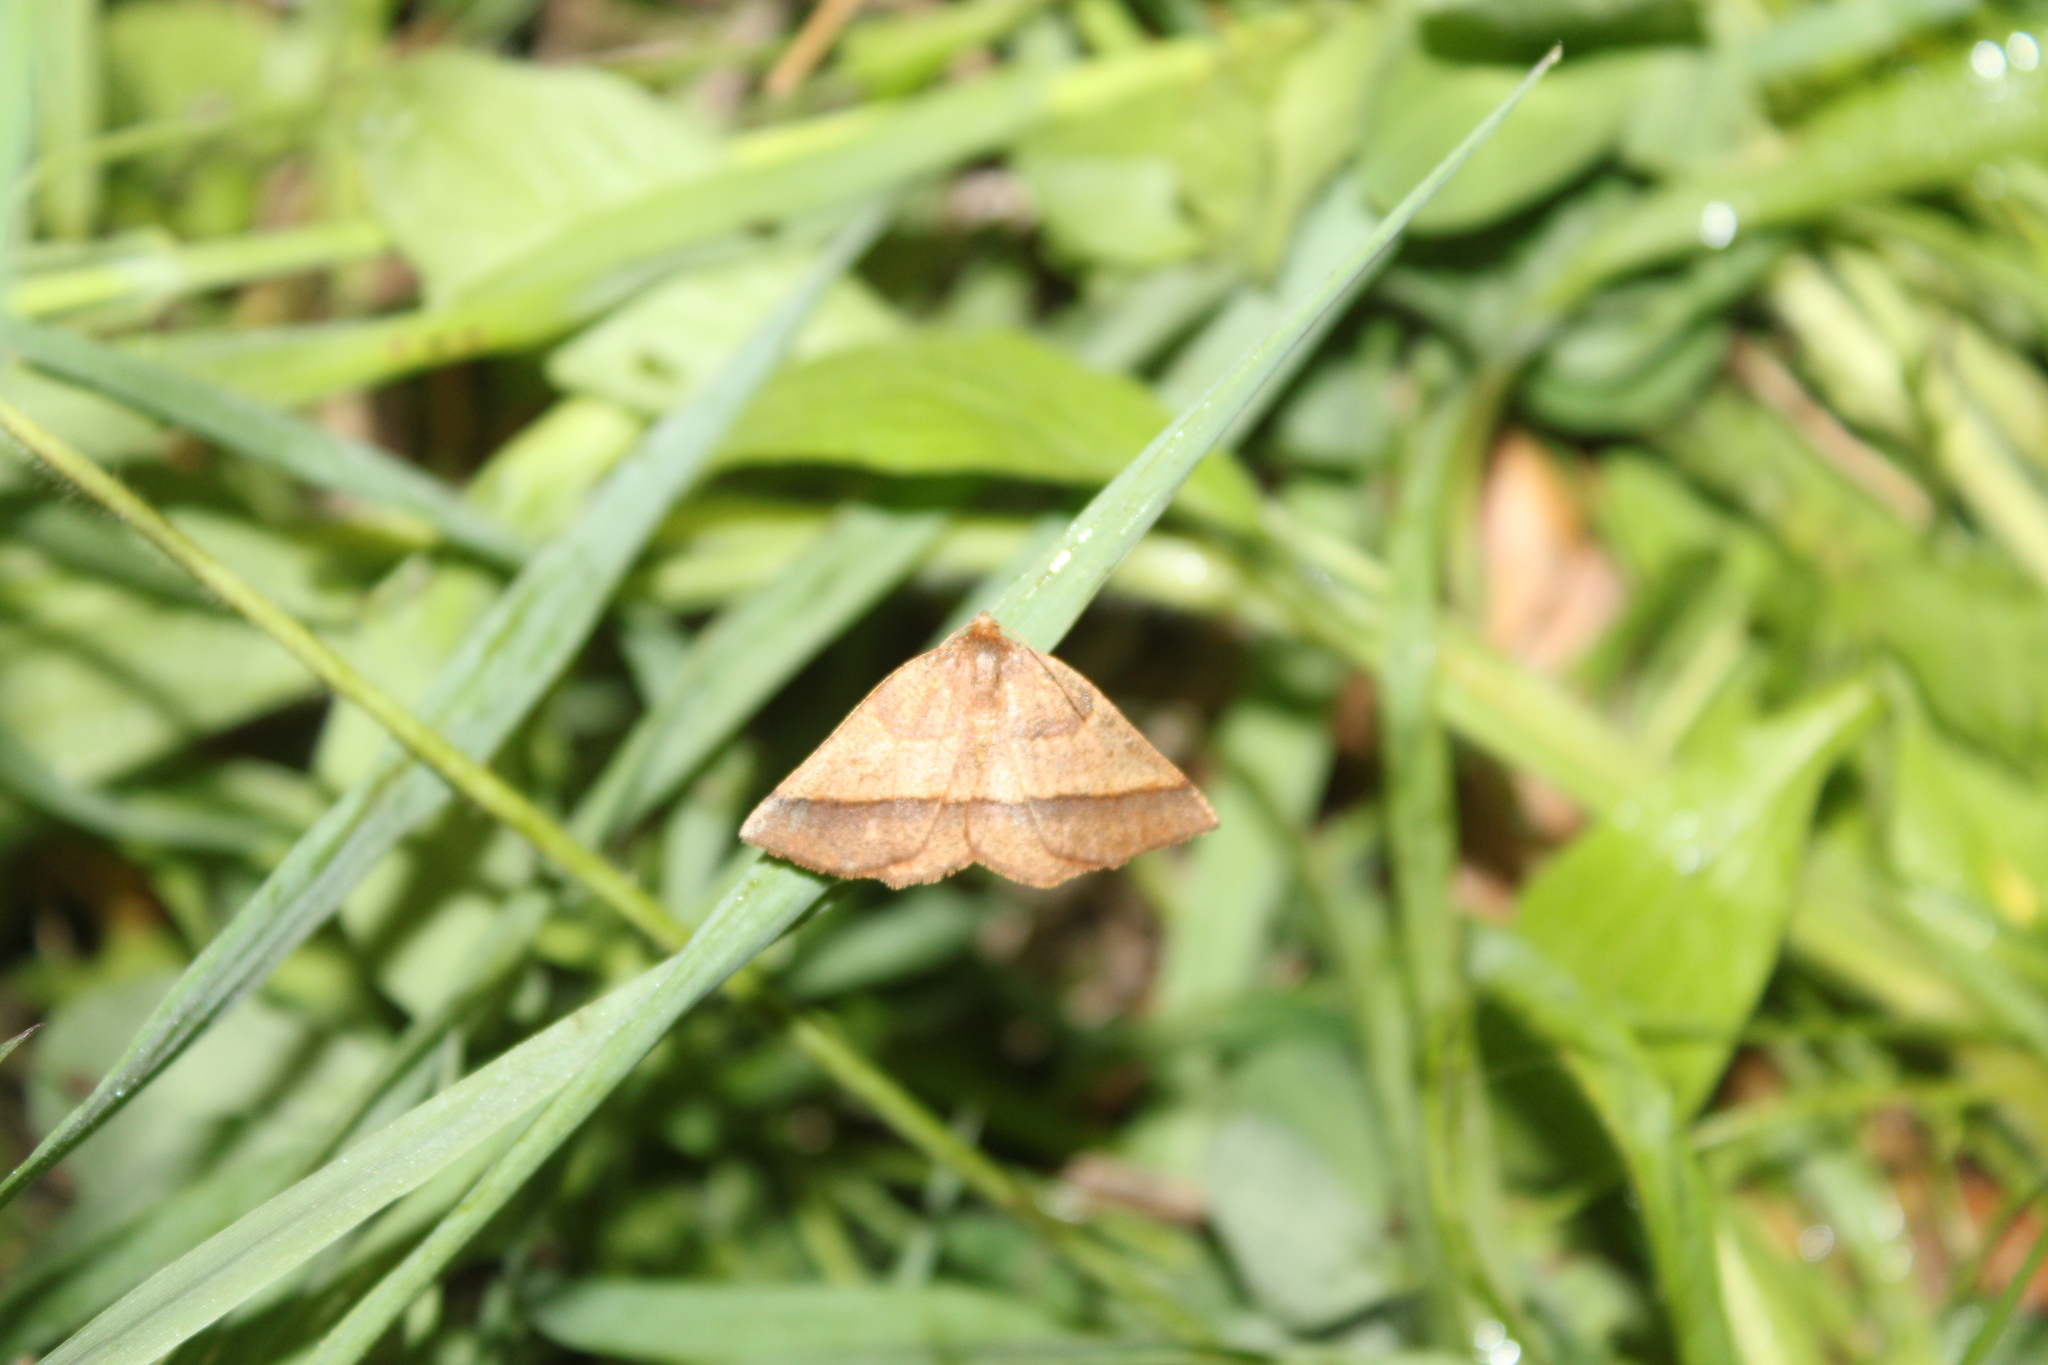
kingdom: Animalia
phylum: Arthropoda
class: Insecta
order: Lepidoptera
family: Geometridae
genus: Metarranthis
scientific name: Metarranthis obfirmaria
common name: Yellow-washed metarranthis
